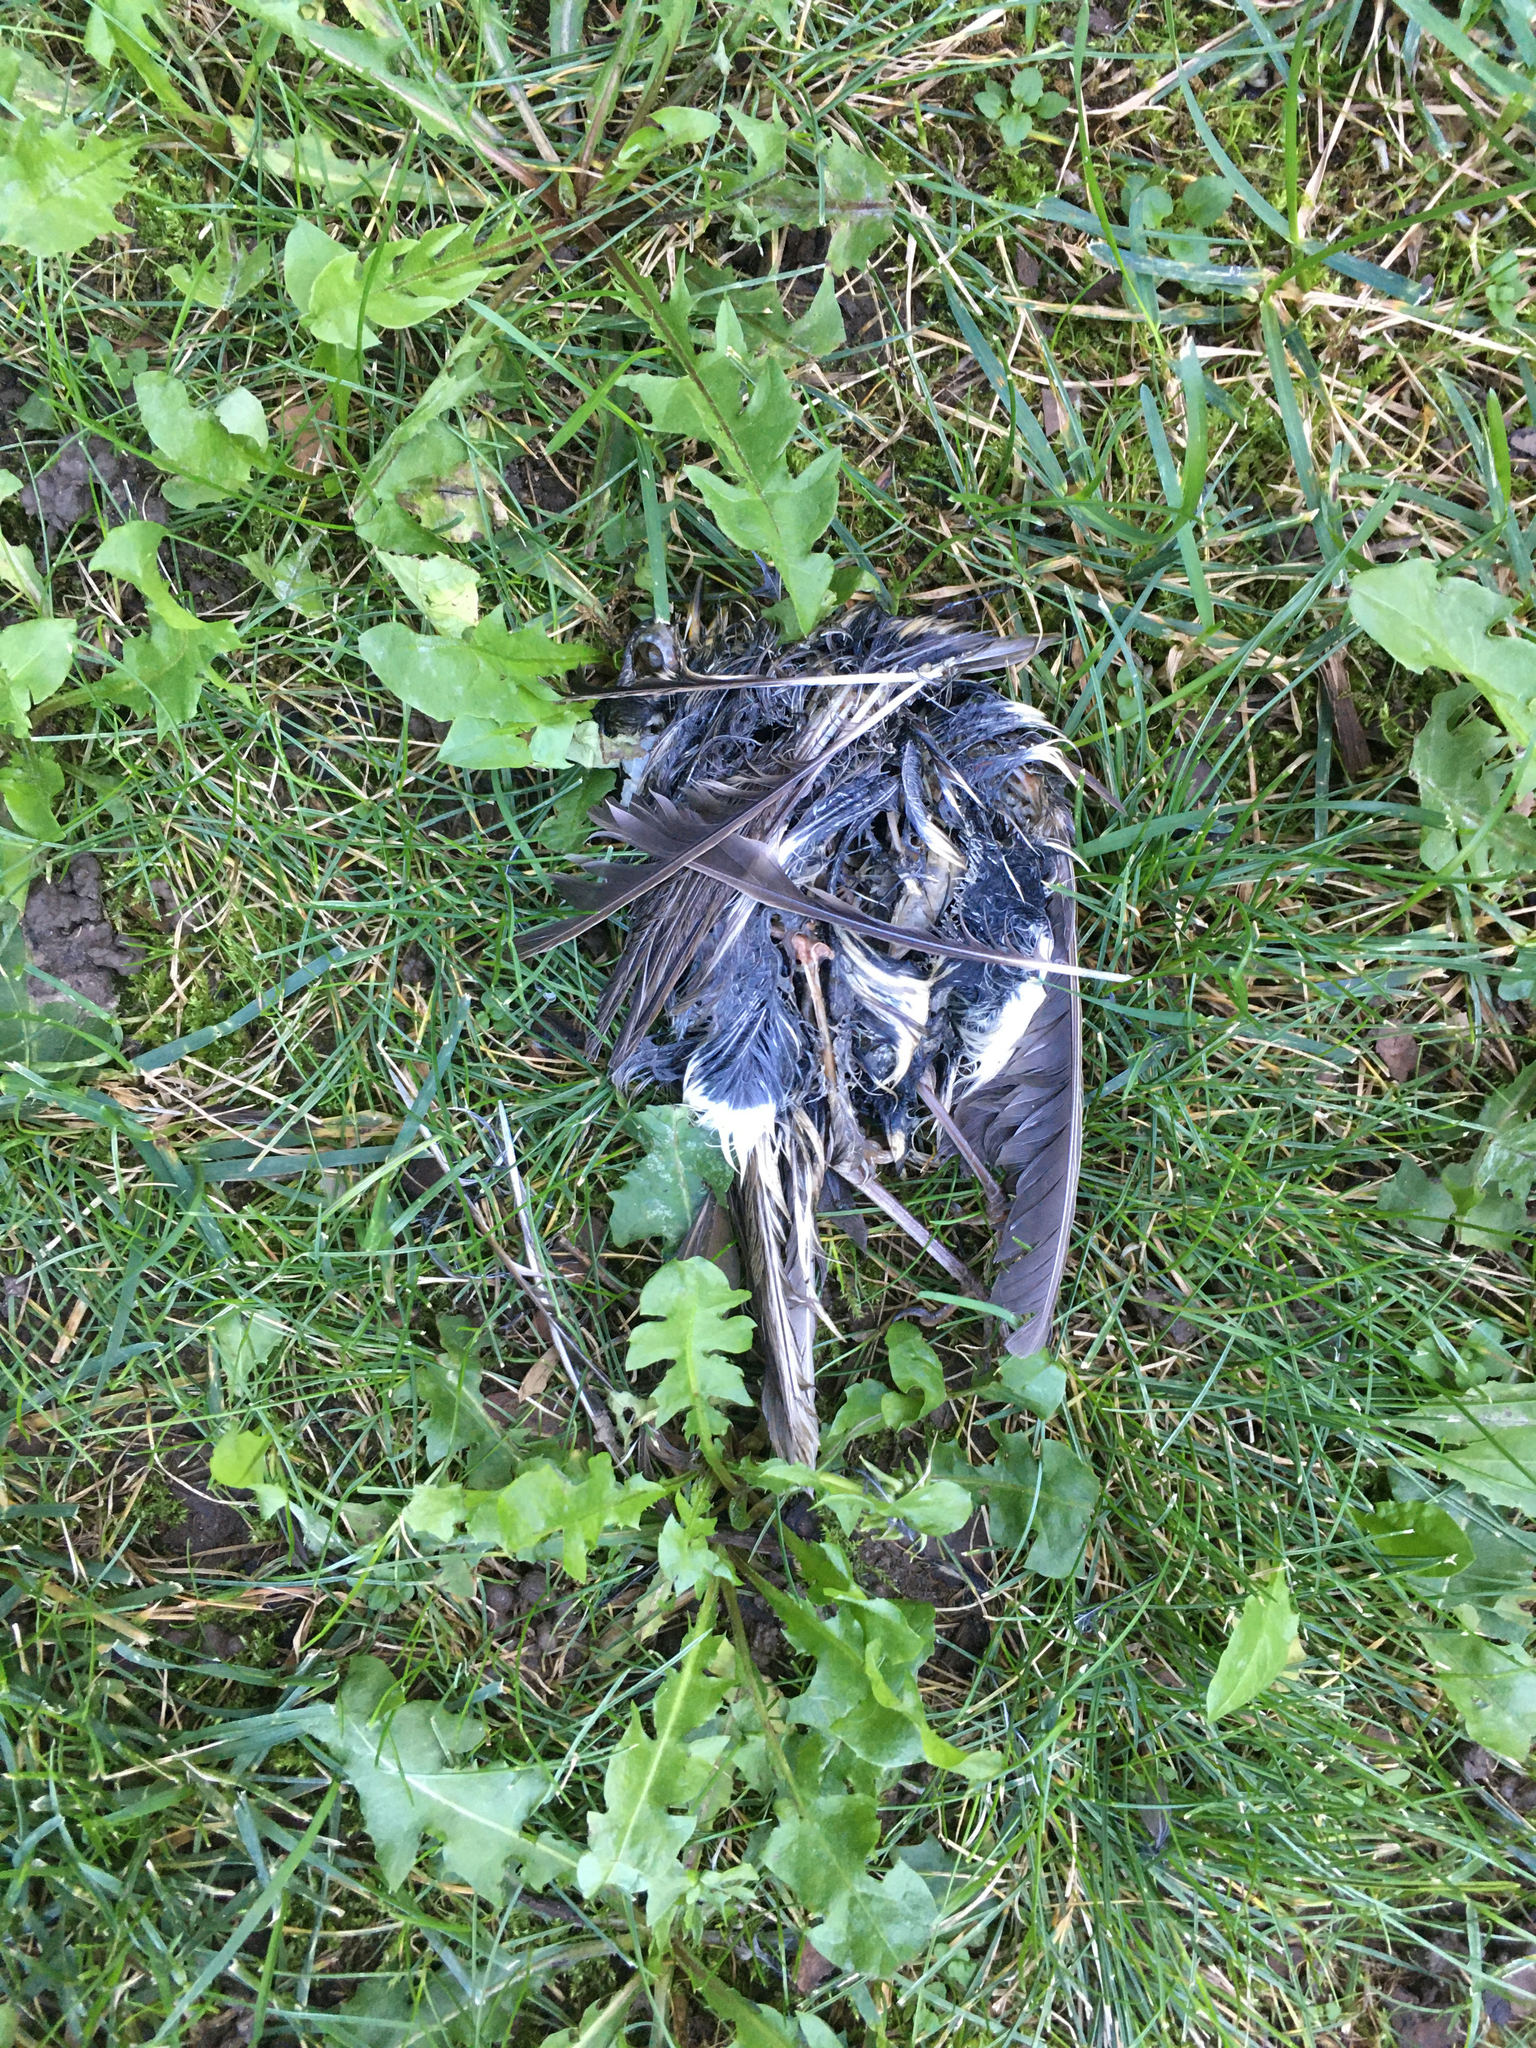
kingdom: Animalia
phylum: Chordata
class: Aves
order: Passeriformes
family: Corvidae
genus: Cyanocitta
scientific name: Cyanocitta cristata
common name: Blue jay
